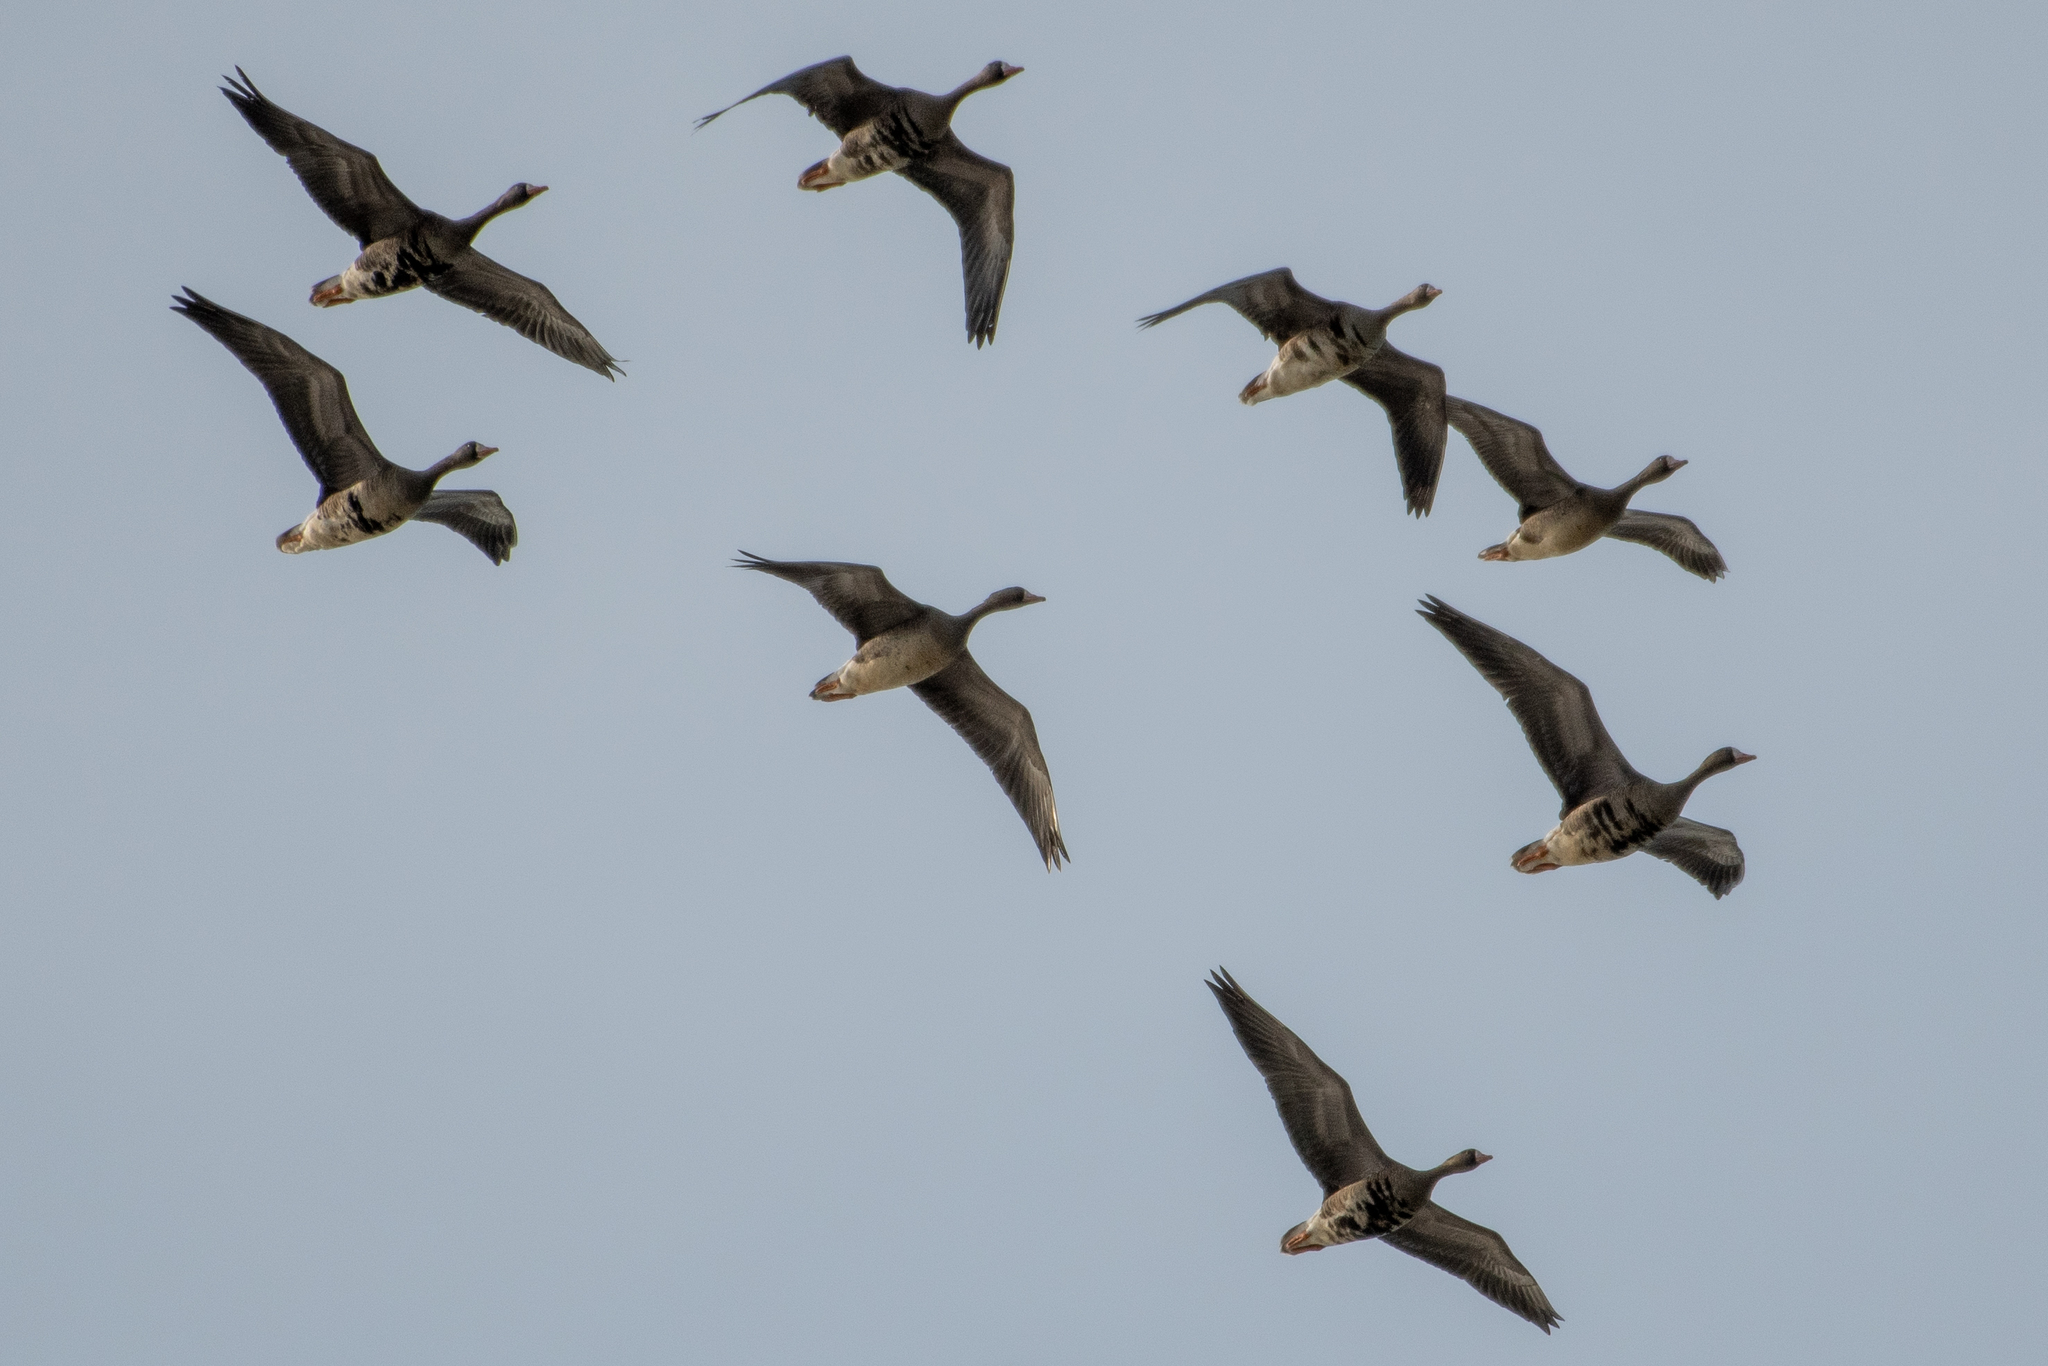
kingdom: Animalia
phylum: Chordata
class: Aves
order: Anseriformes
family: Anatidae
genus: Anser
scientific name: Anser albifrons
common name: Greater white-fronted goose
